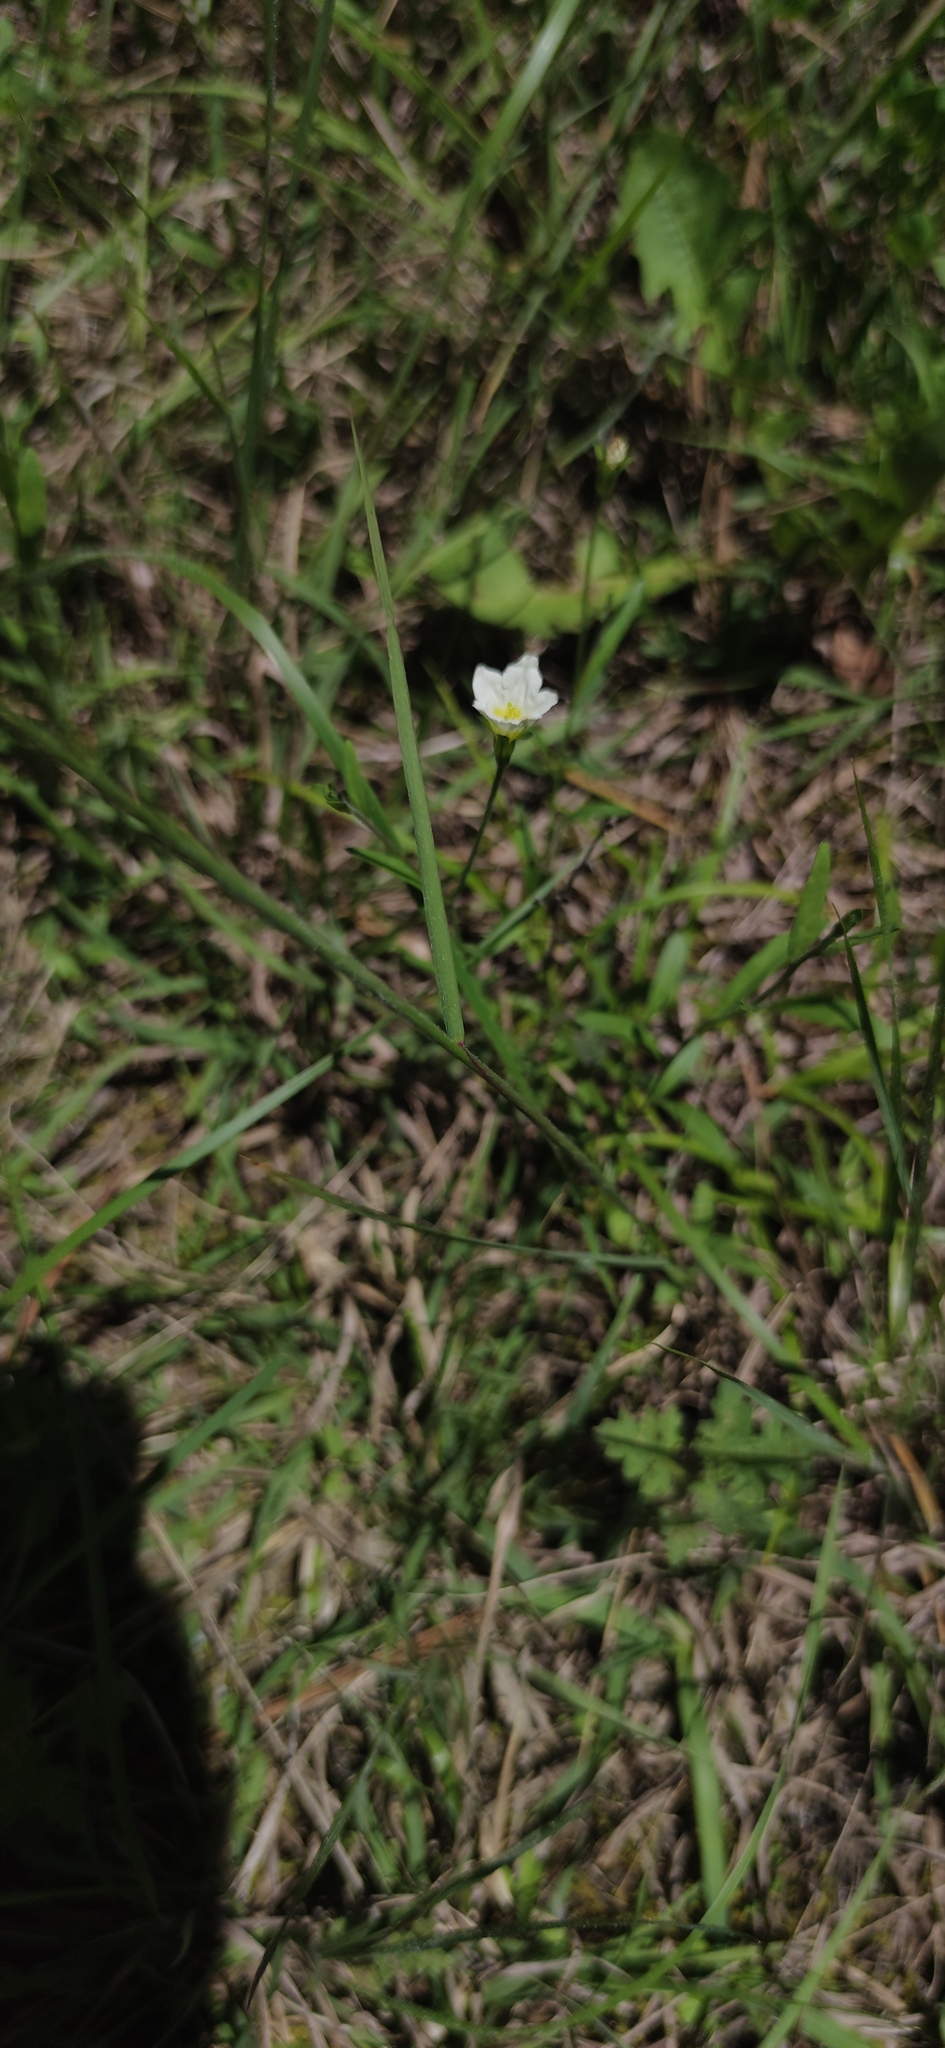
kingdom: Plantae
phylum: Tracheophyta
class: Magnoliopsida
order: Solanales
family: Solanaceae
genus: Salpiglossis
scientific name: Salpiglossis erecta
